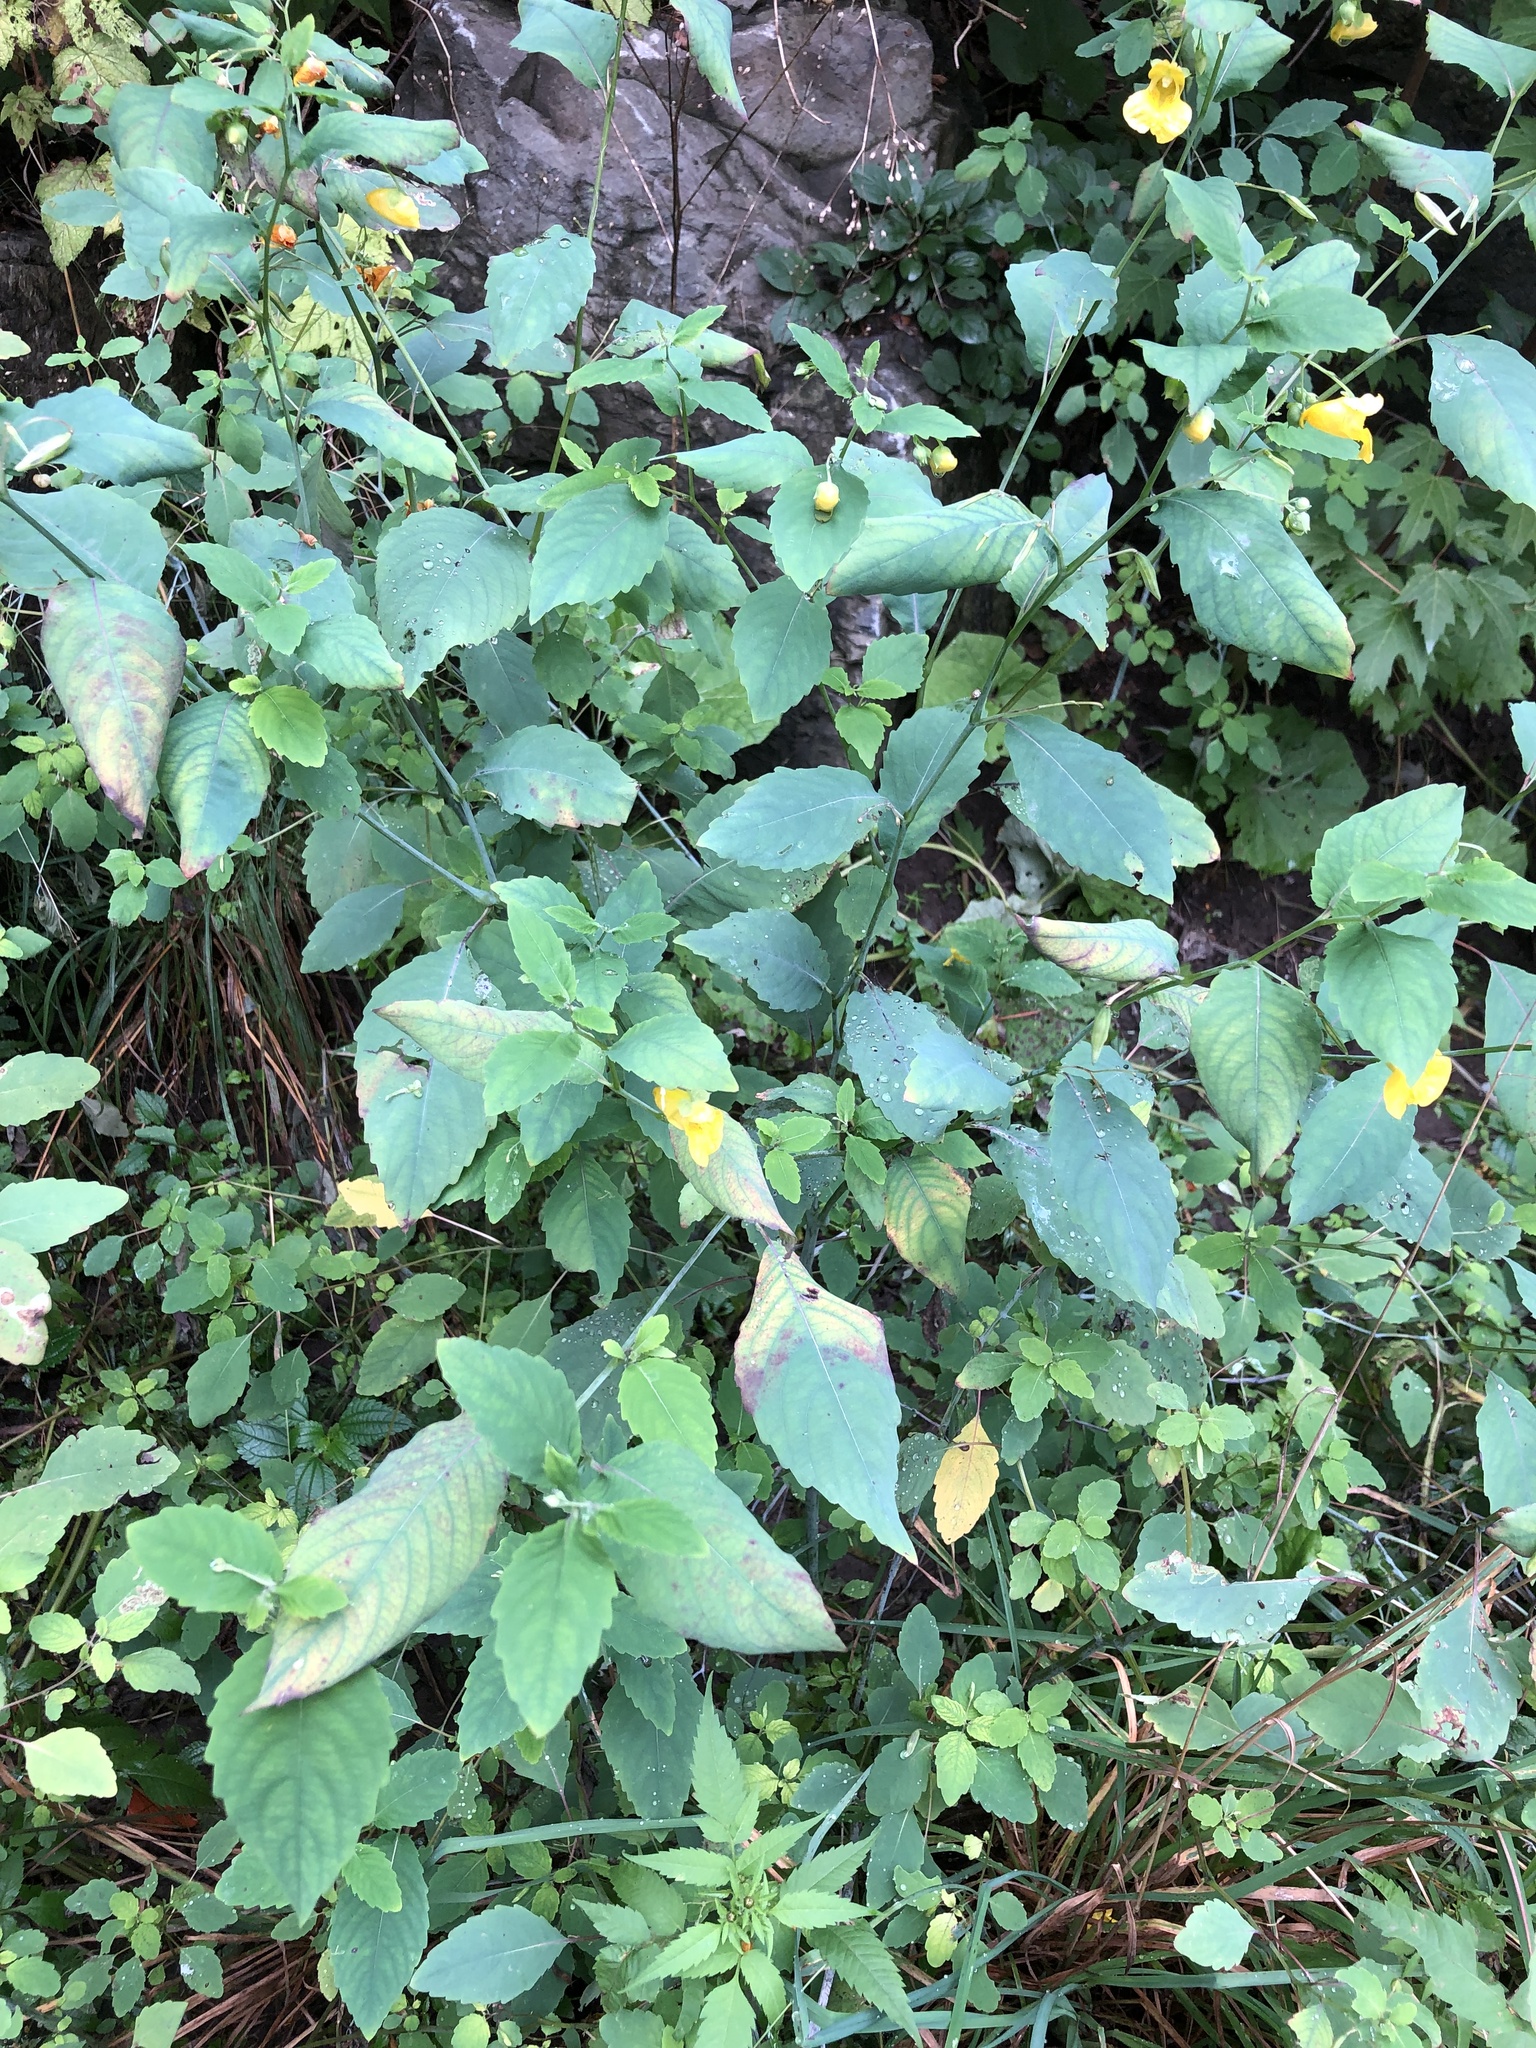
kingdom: Plantae
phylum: Tracheophyta
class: Magnoliopsida
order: Ericales
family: Balsaminaceae
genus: Impatiens
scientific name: Impatiens pallida
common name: Pale snapweed
